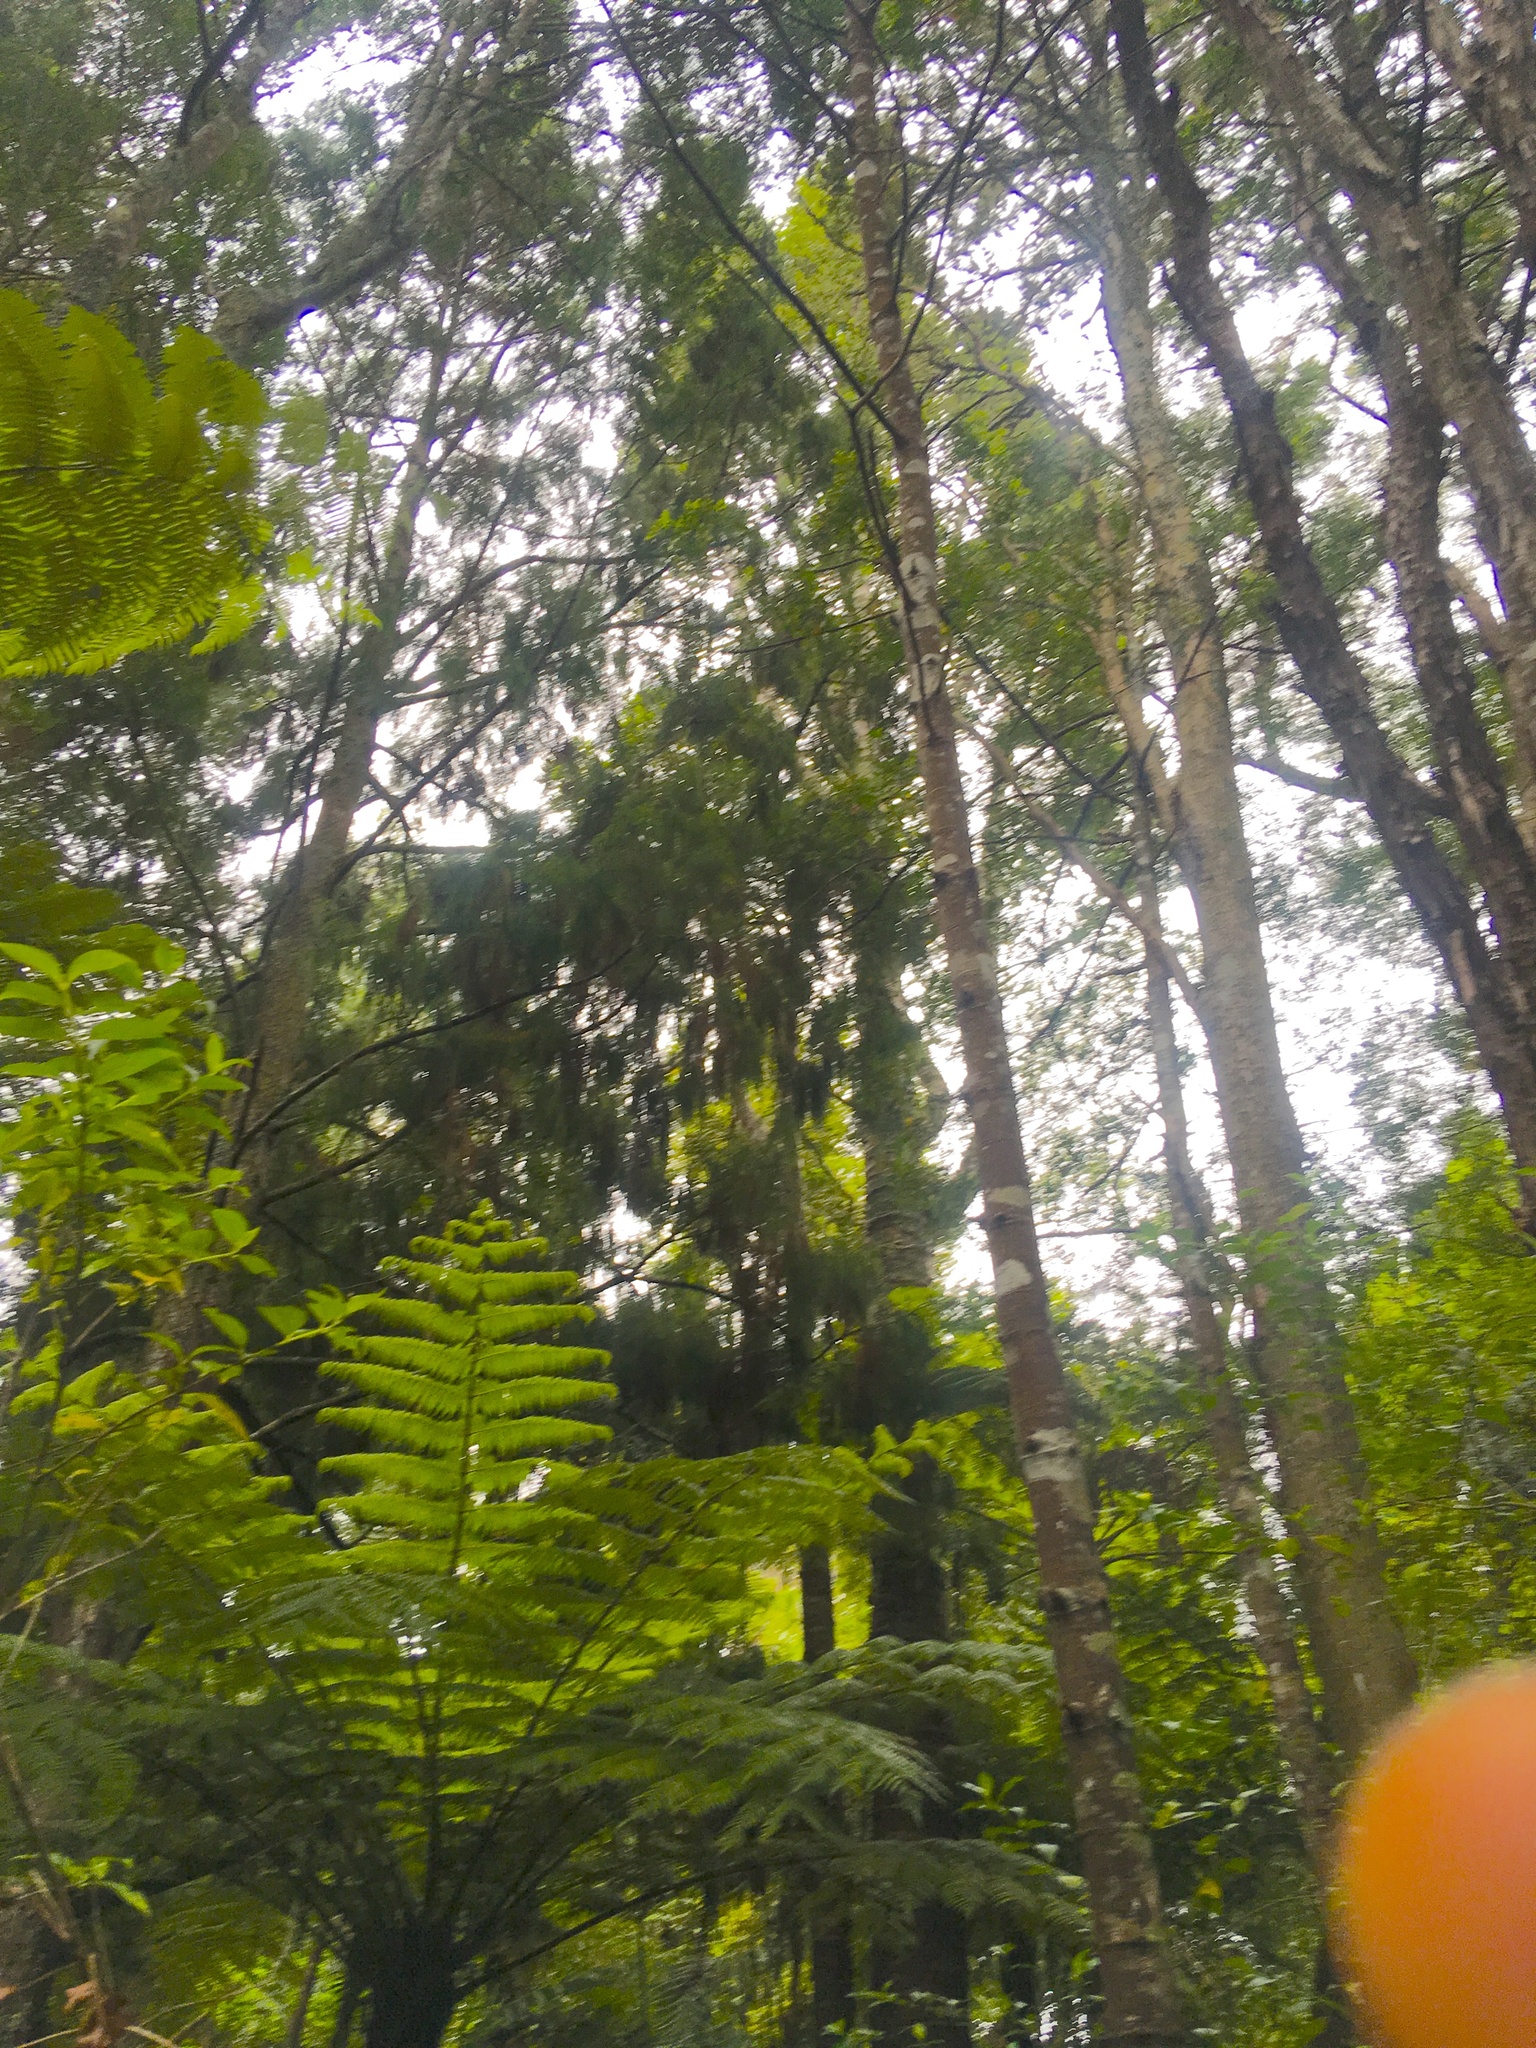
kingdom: Plantae
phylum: Tracheophyta
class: Pinopsida
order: Pinales
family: Podocarpaceae
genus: Dacrydium
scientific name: Dacrydium cupressinum
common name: Red pine
